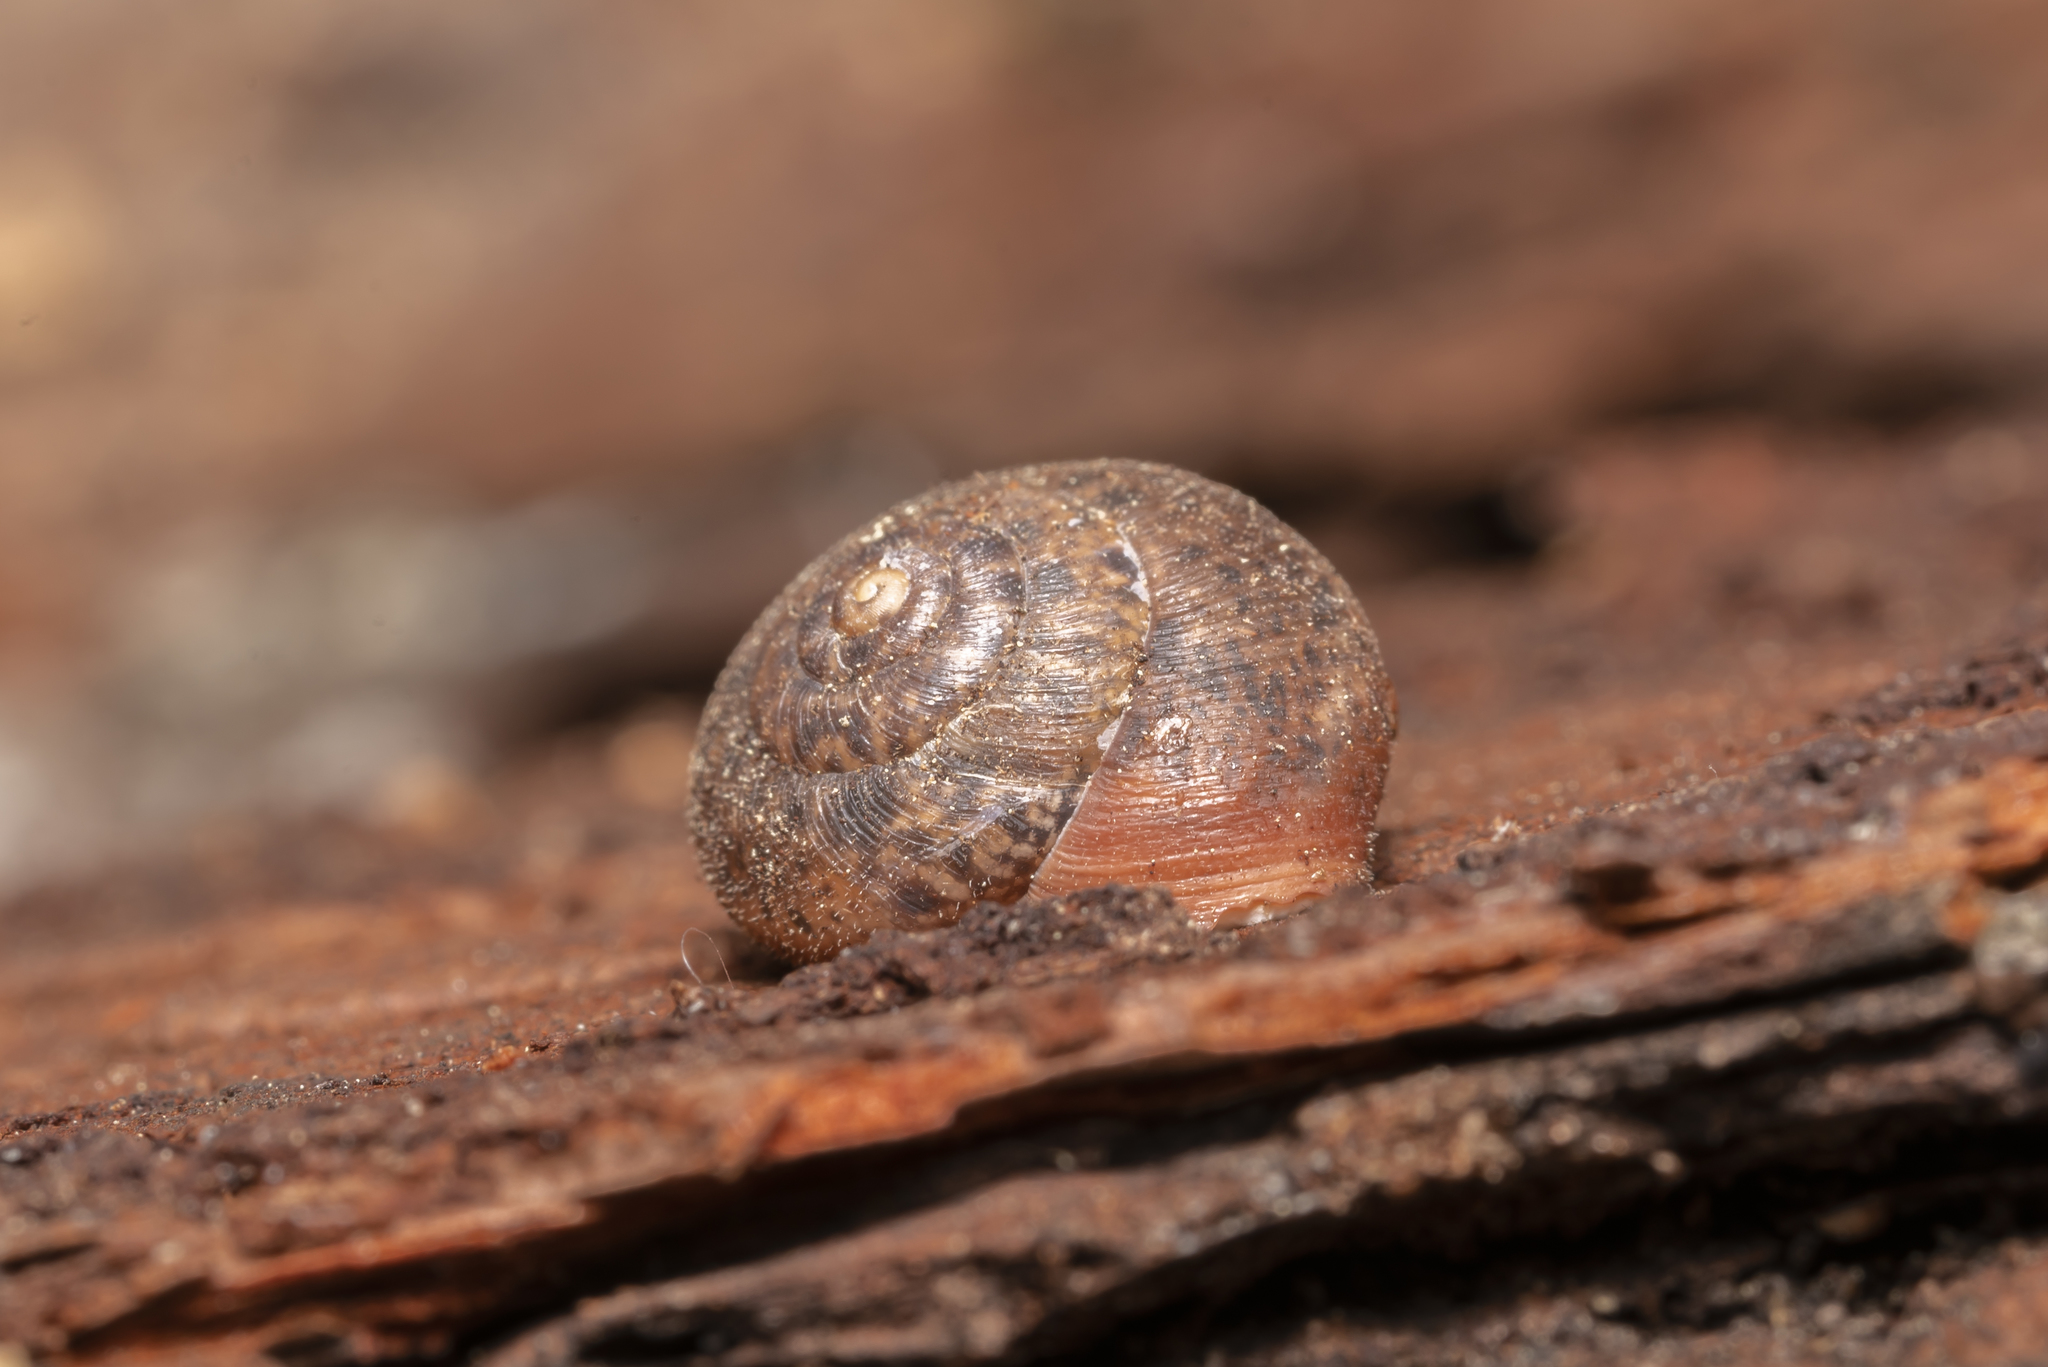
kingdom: Animalia
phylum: Mollusca
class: Gastropoda
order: Stylommatophora
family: Hygromiidae
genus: Metafruticicola
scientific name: Metafruticicola nicosiana
